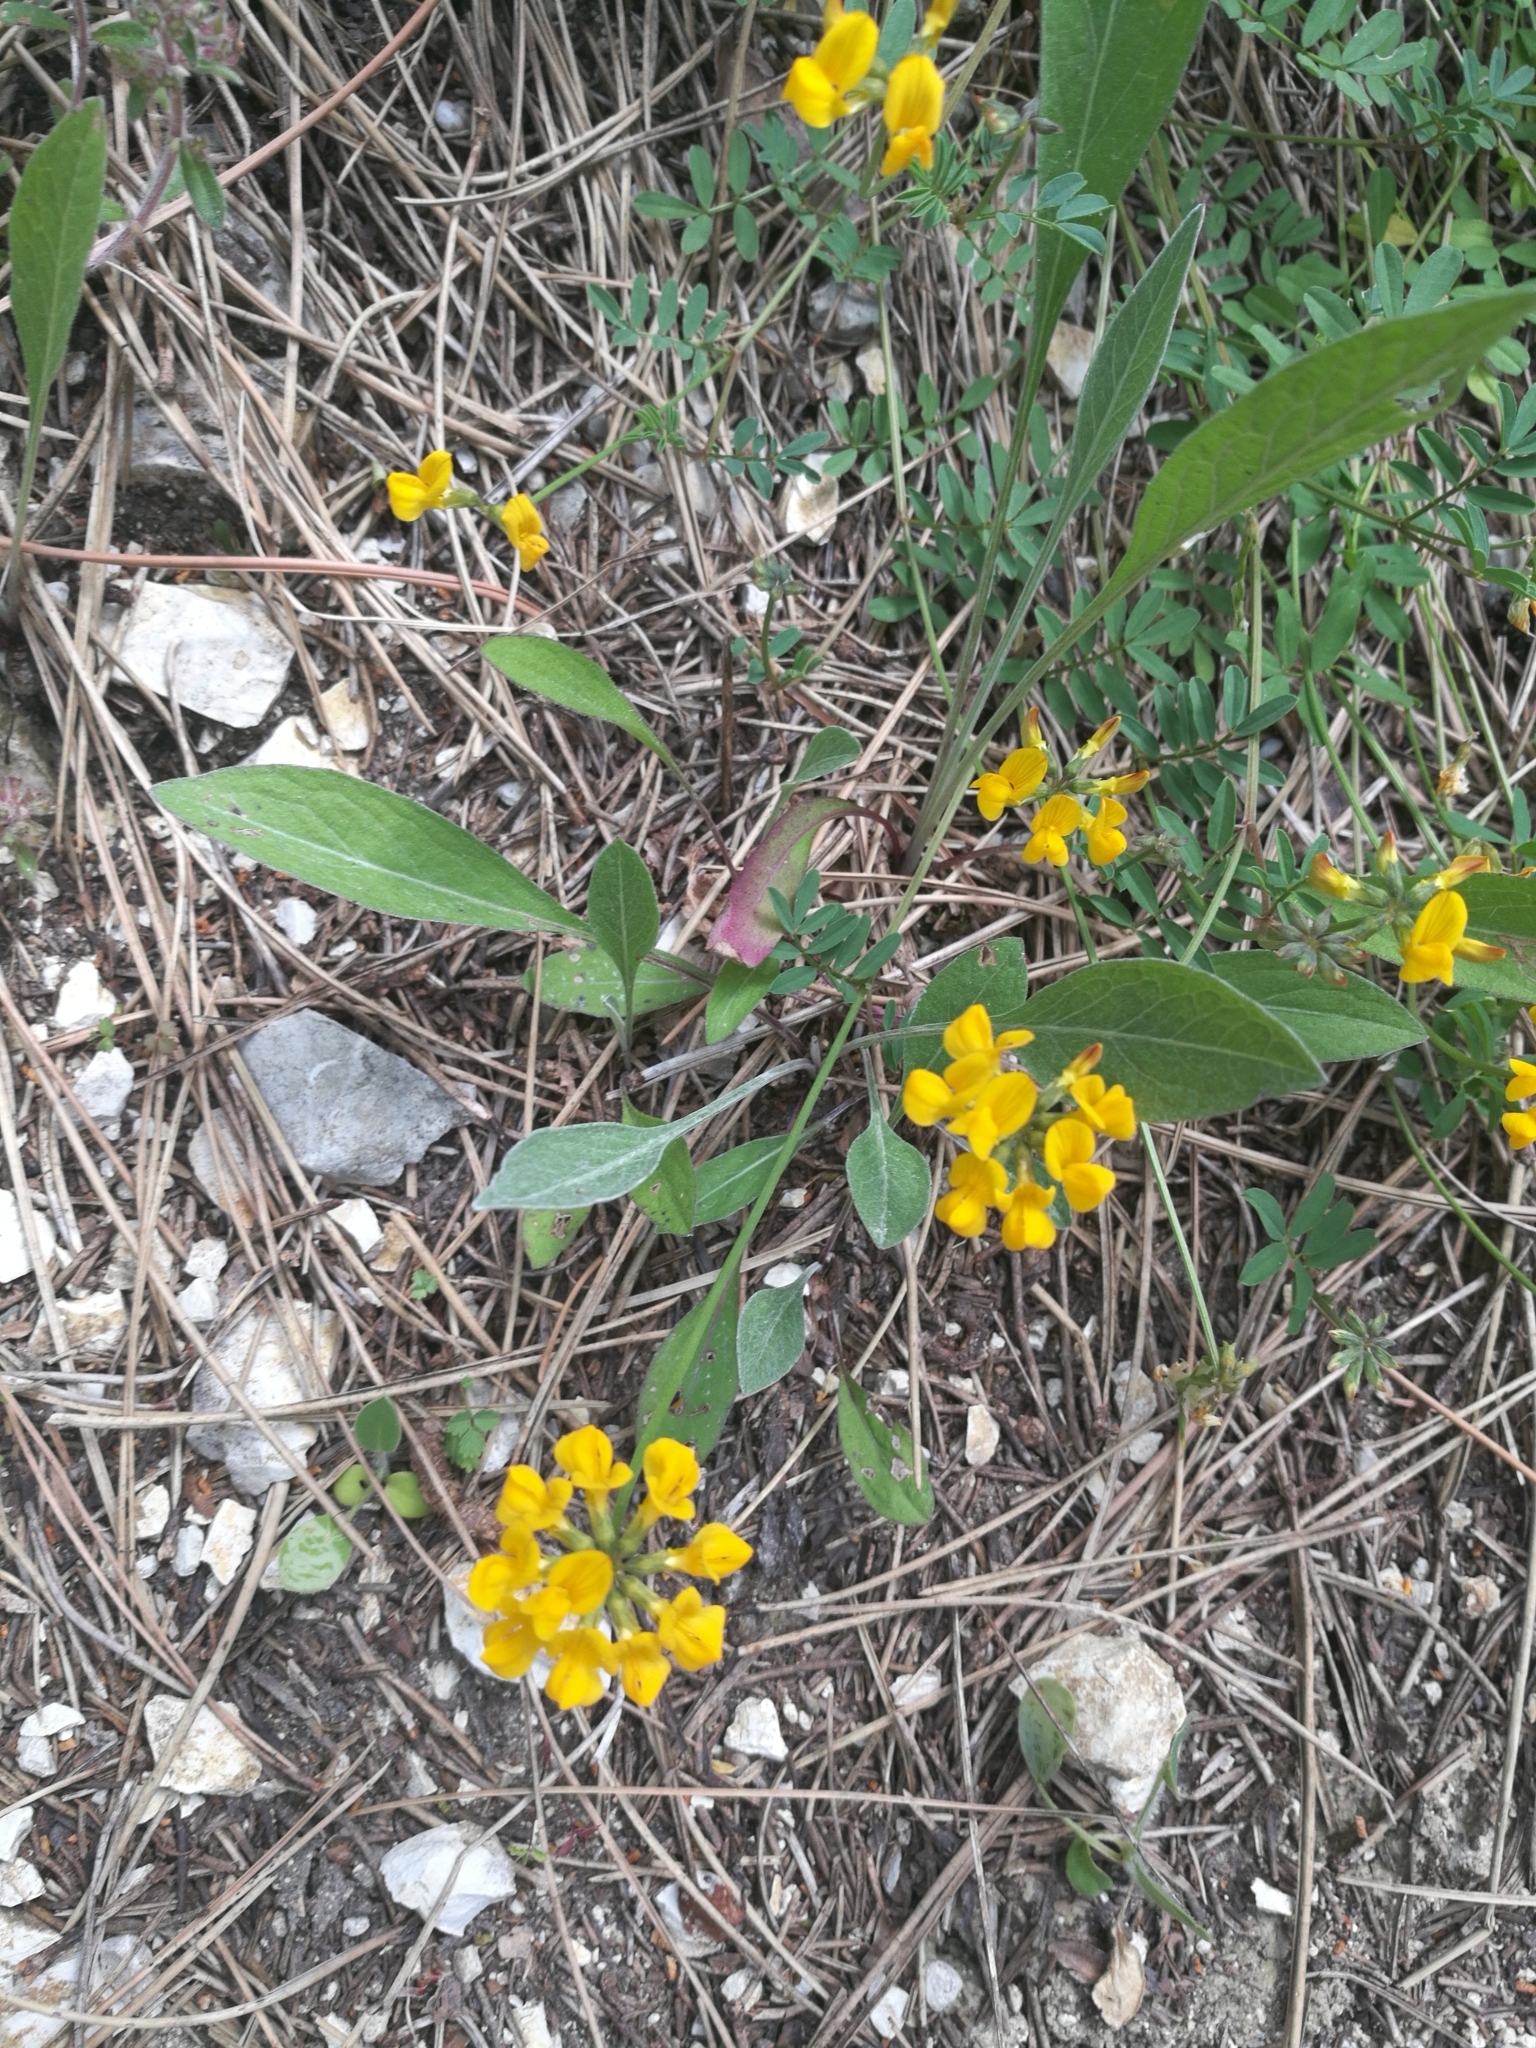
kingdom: Plantae
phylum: Tracheophyta
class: Magnoliopsida
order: Fabales
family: Fabaceae
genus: Hippocrepis
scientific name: Hippocrepis comosa
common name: Horseshoe vetch
